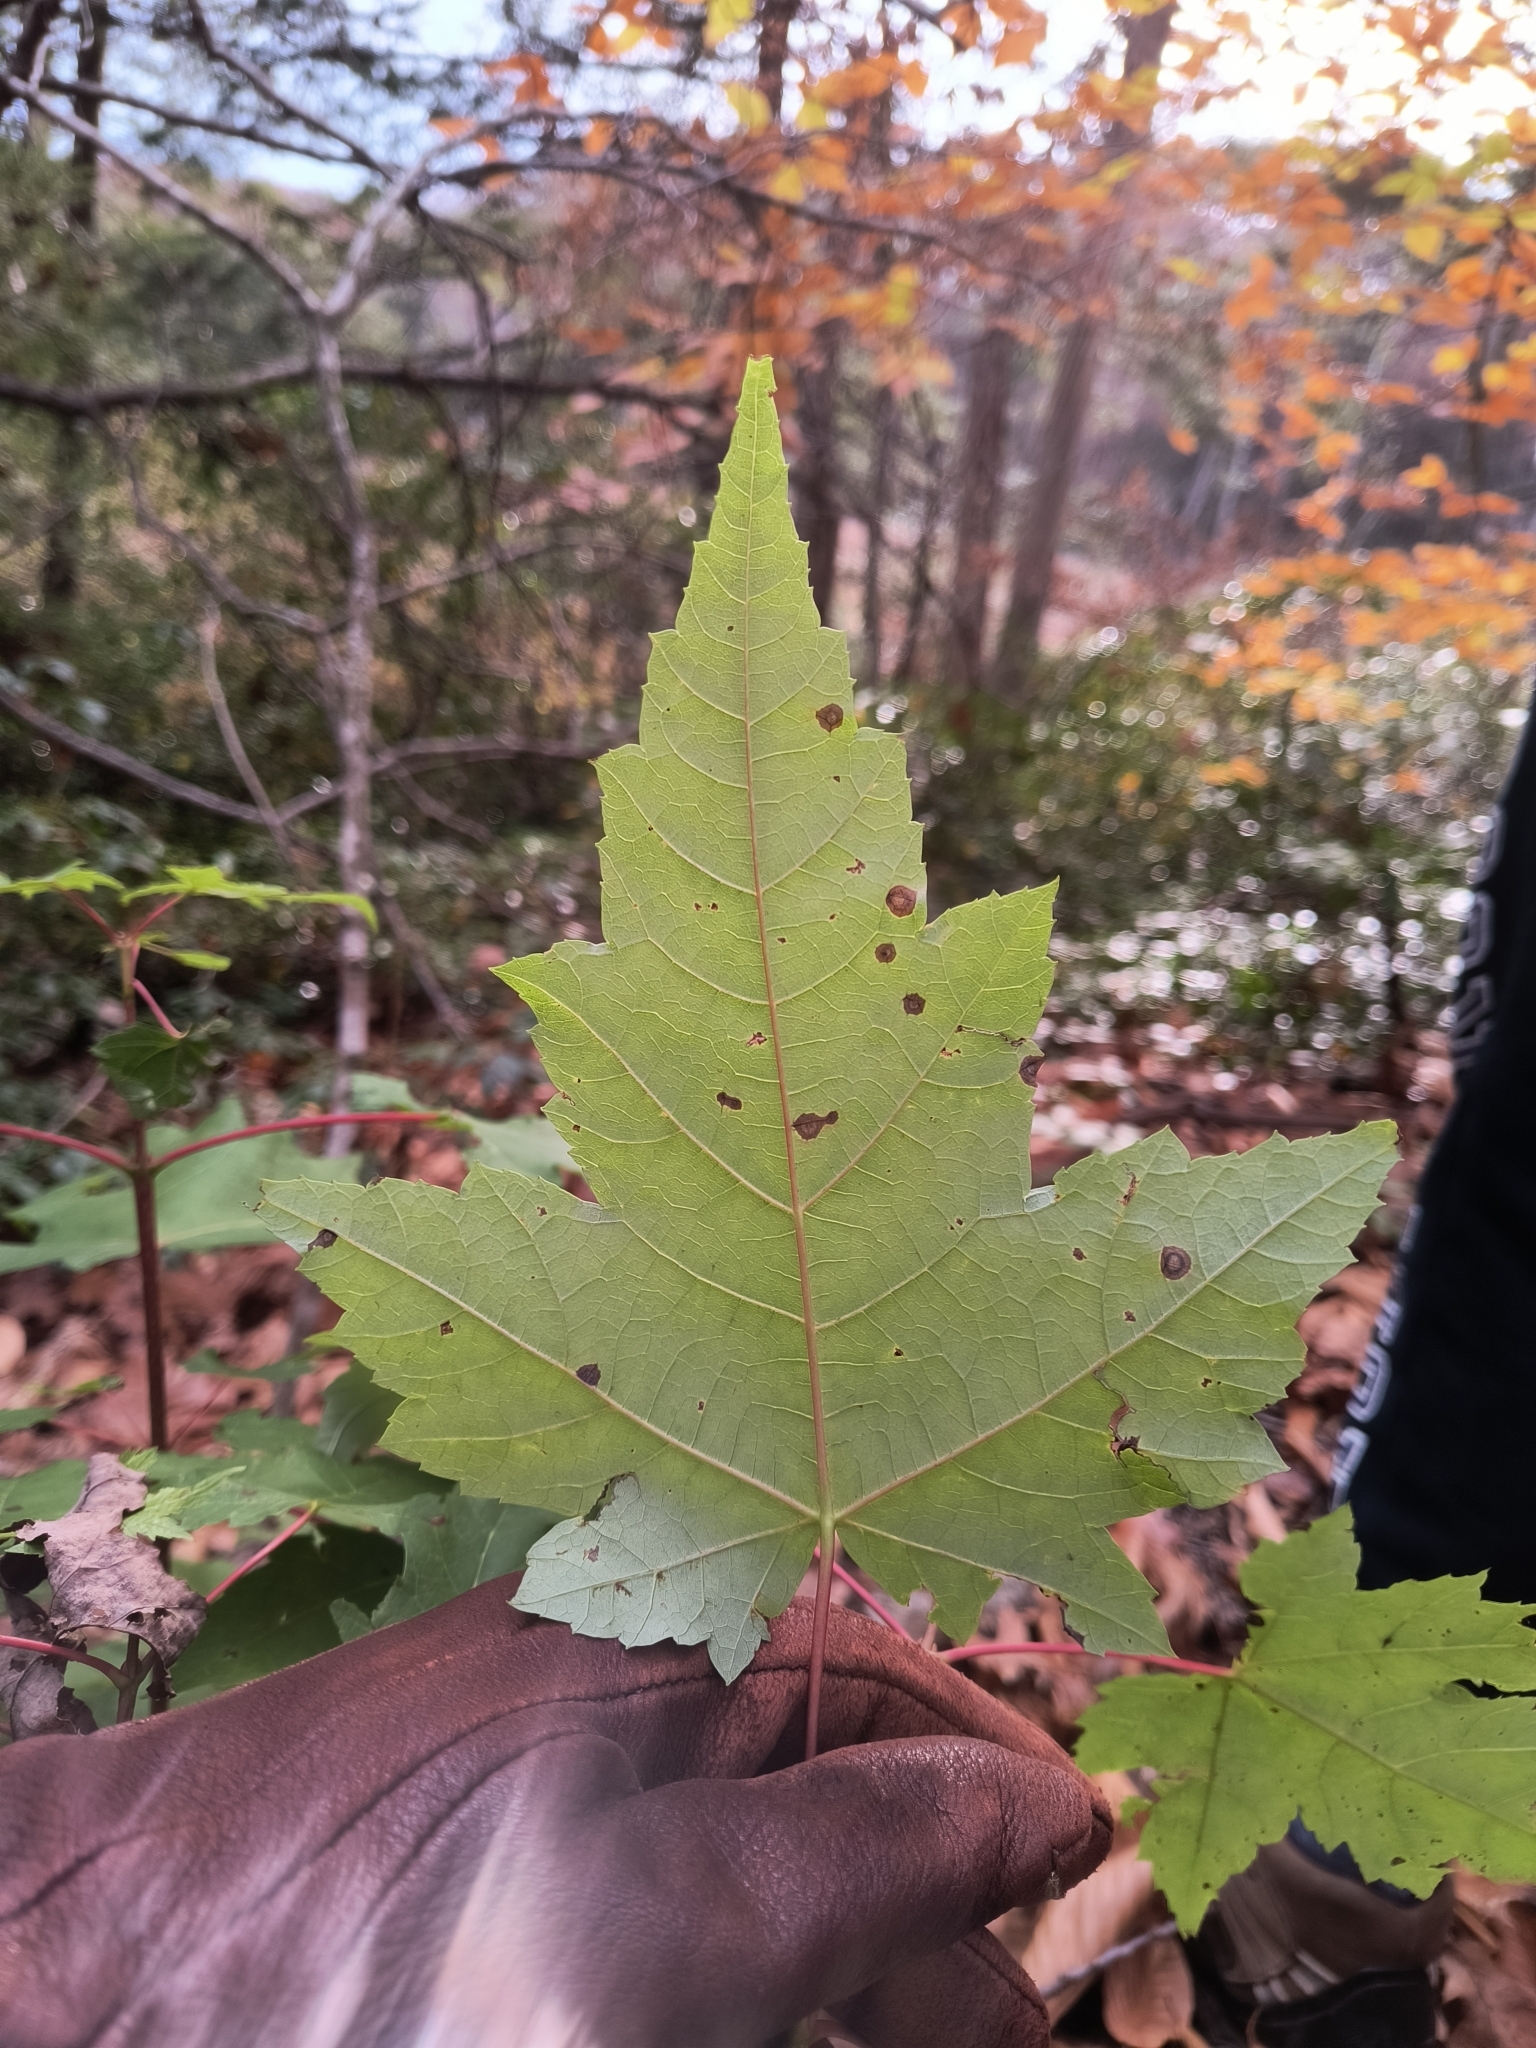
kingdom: Plantae
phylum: Tracheophyta
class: Magnoliopsida
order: Sapindales
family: Sapindaceae
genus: Acer
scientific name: Acer rubrum
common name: Red maple
